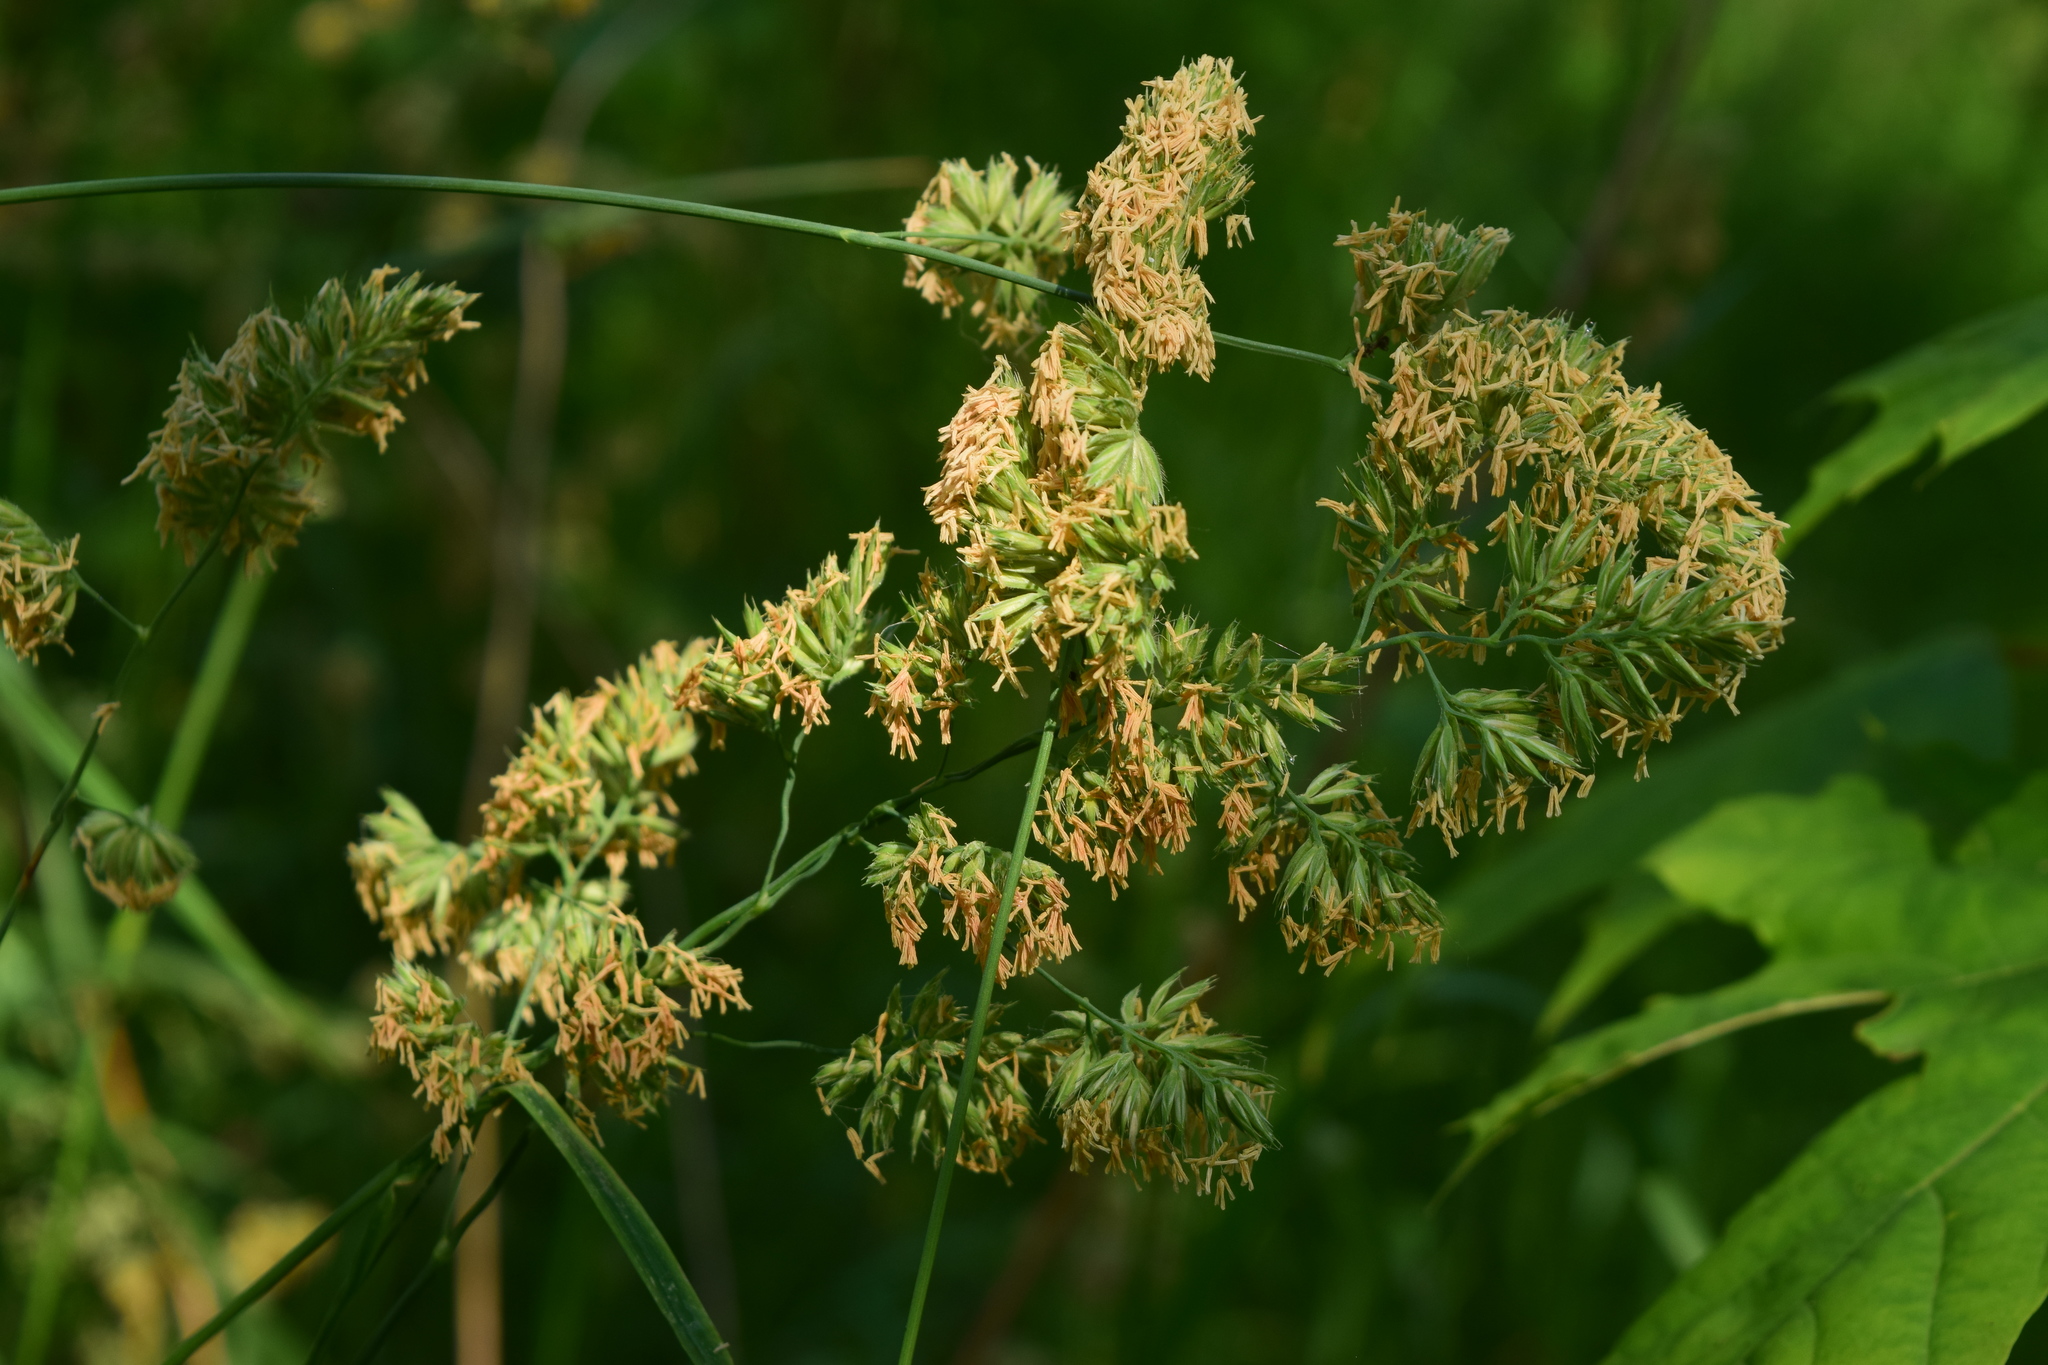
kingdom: Plantae
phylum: Tracheophyta
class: Liliopsida
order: Poales
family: Poaceae
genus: Dactylis
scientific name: Dactylis glomerata
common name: Orchardgrass
